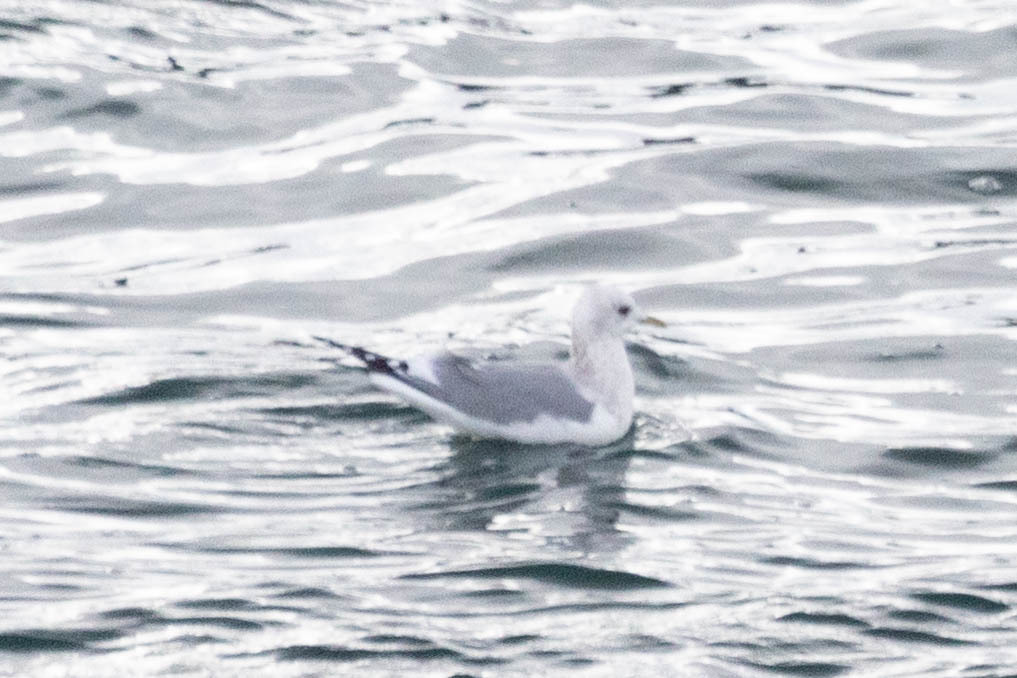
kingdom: Animalia
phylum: Chordata
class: Aves
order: Charadriiformes
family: Laridae
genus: Larus
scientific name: Larus brachyrhynchus
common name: Short-billed gull
